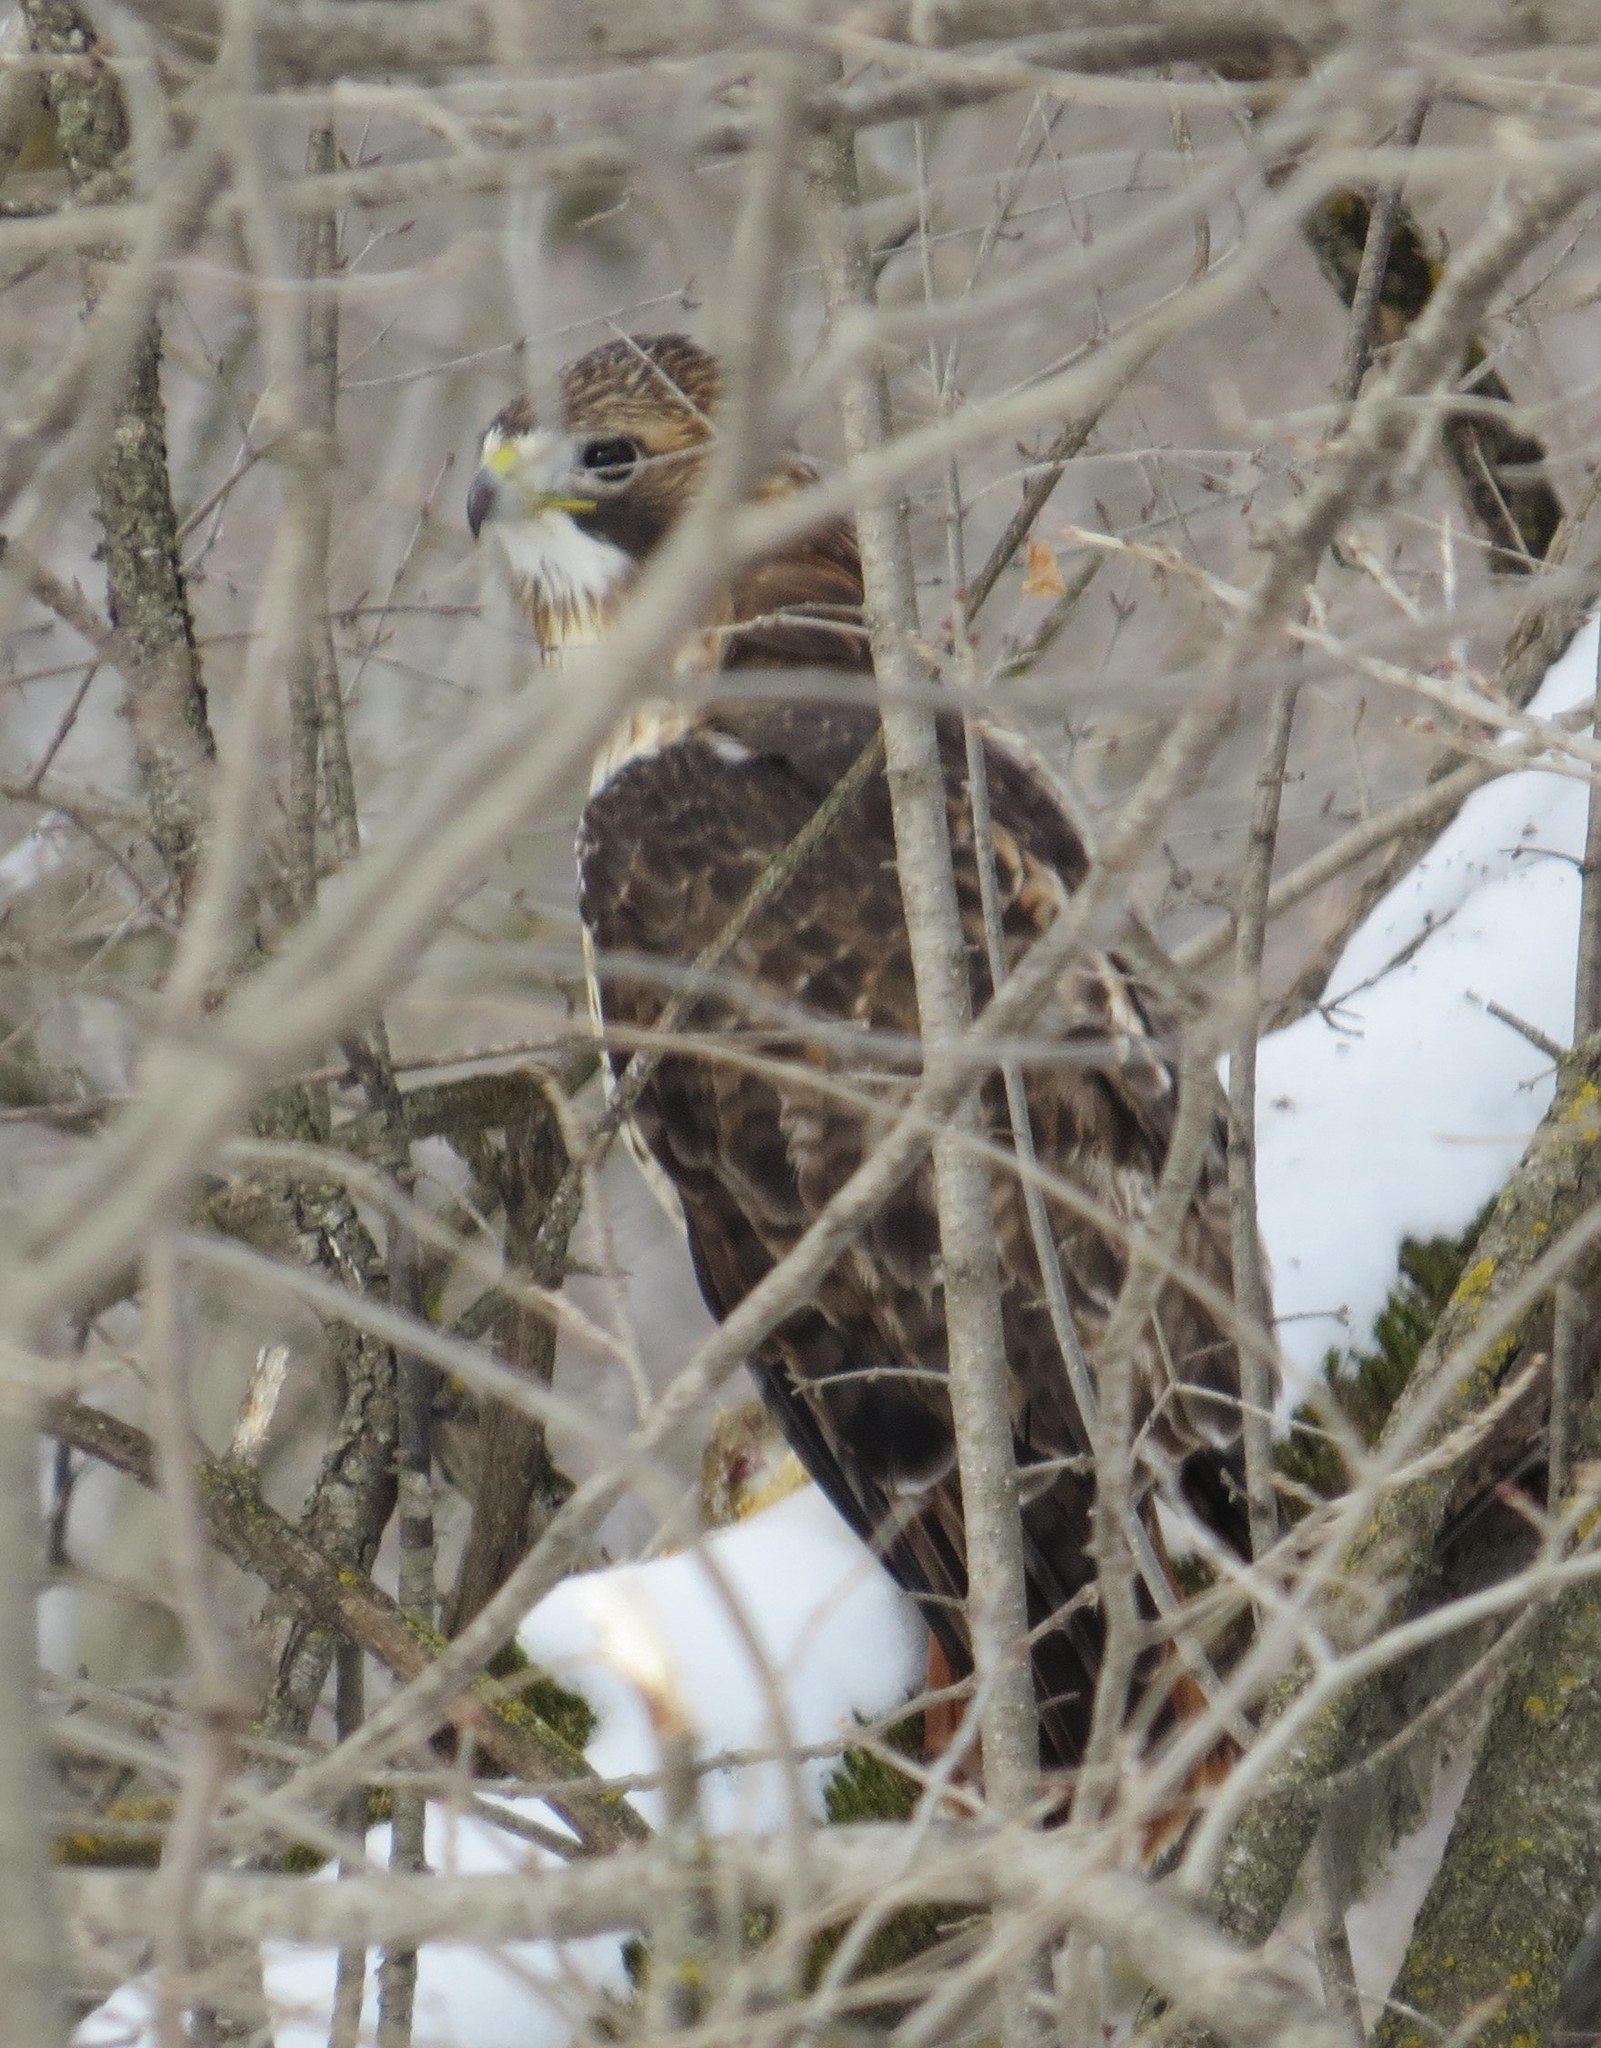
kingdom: Animalia
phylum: Chordata
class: Aves
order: Accipitriformes
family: Accipitridae
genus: Buteo
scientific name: Buteo jamaicensis
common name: Red-tailed hawk
